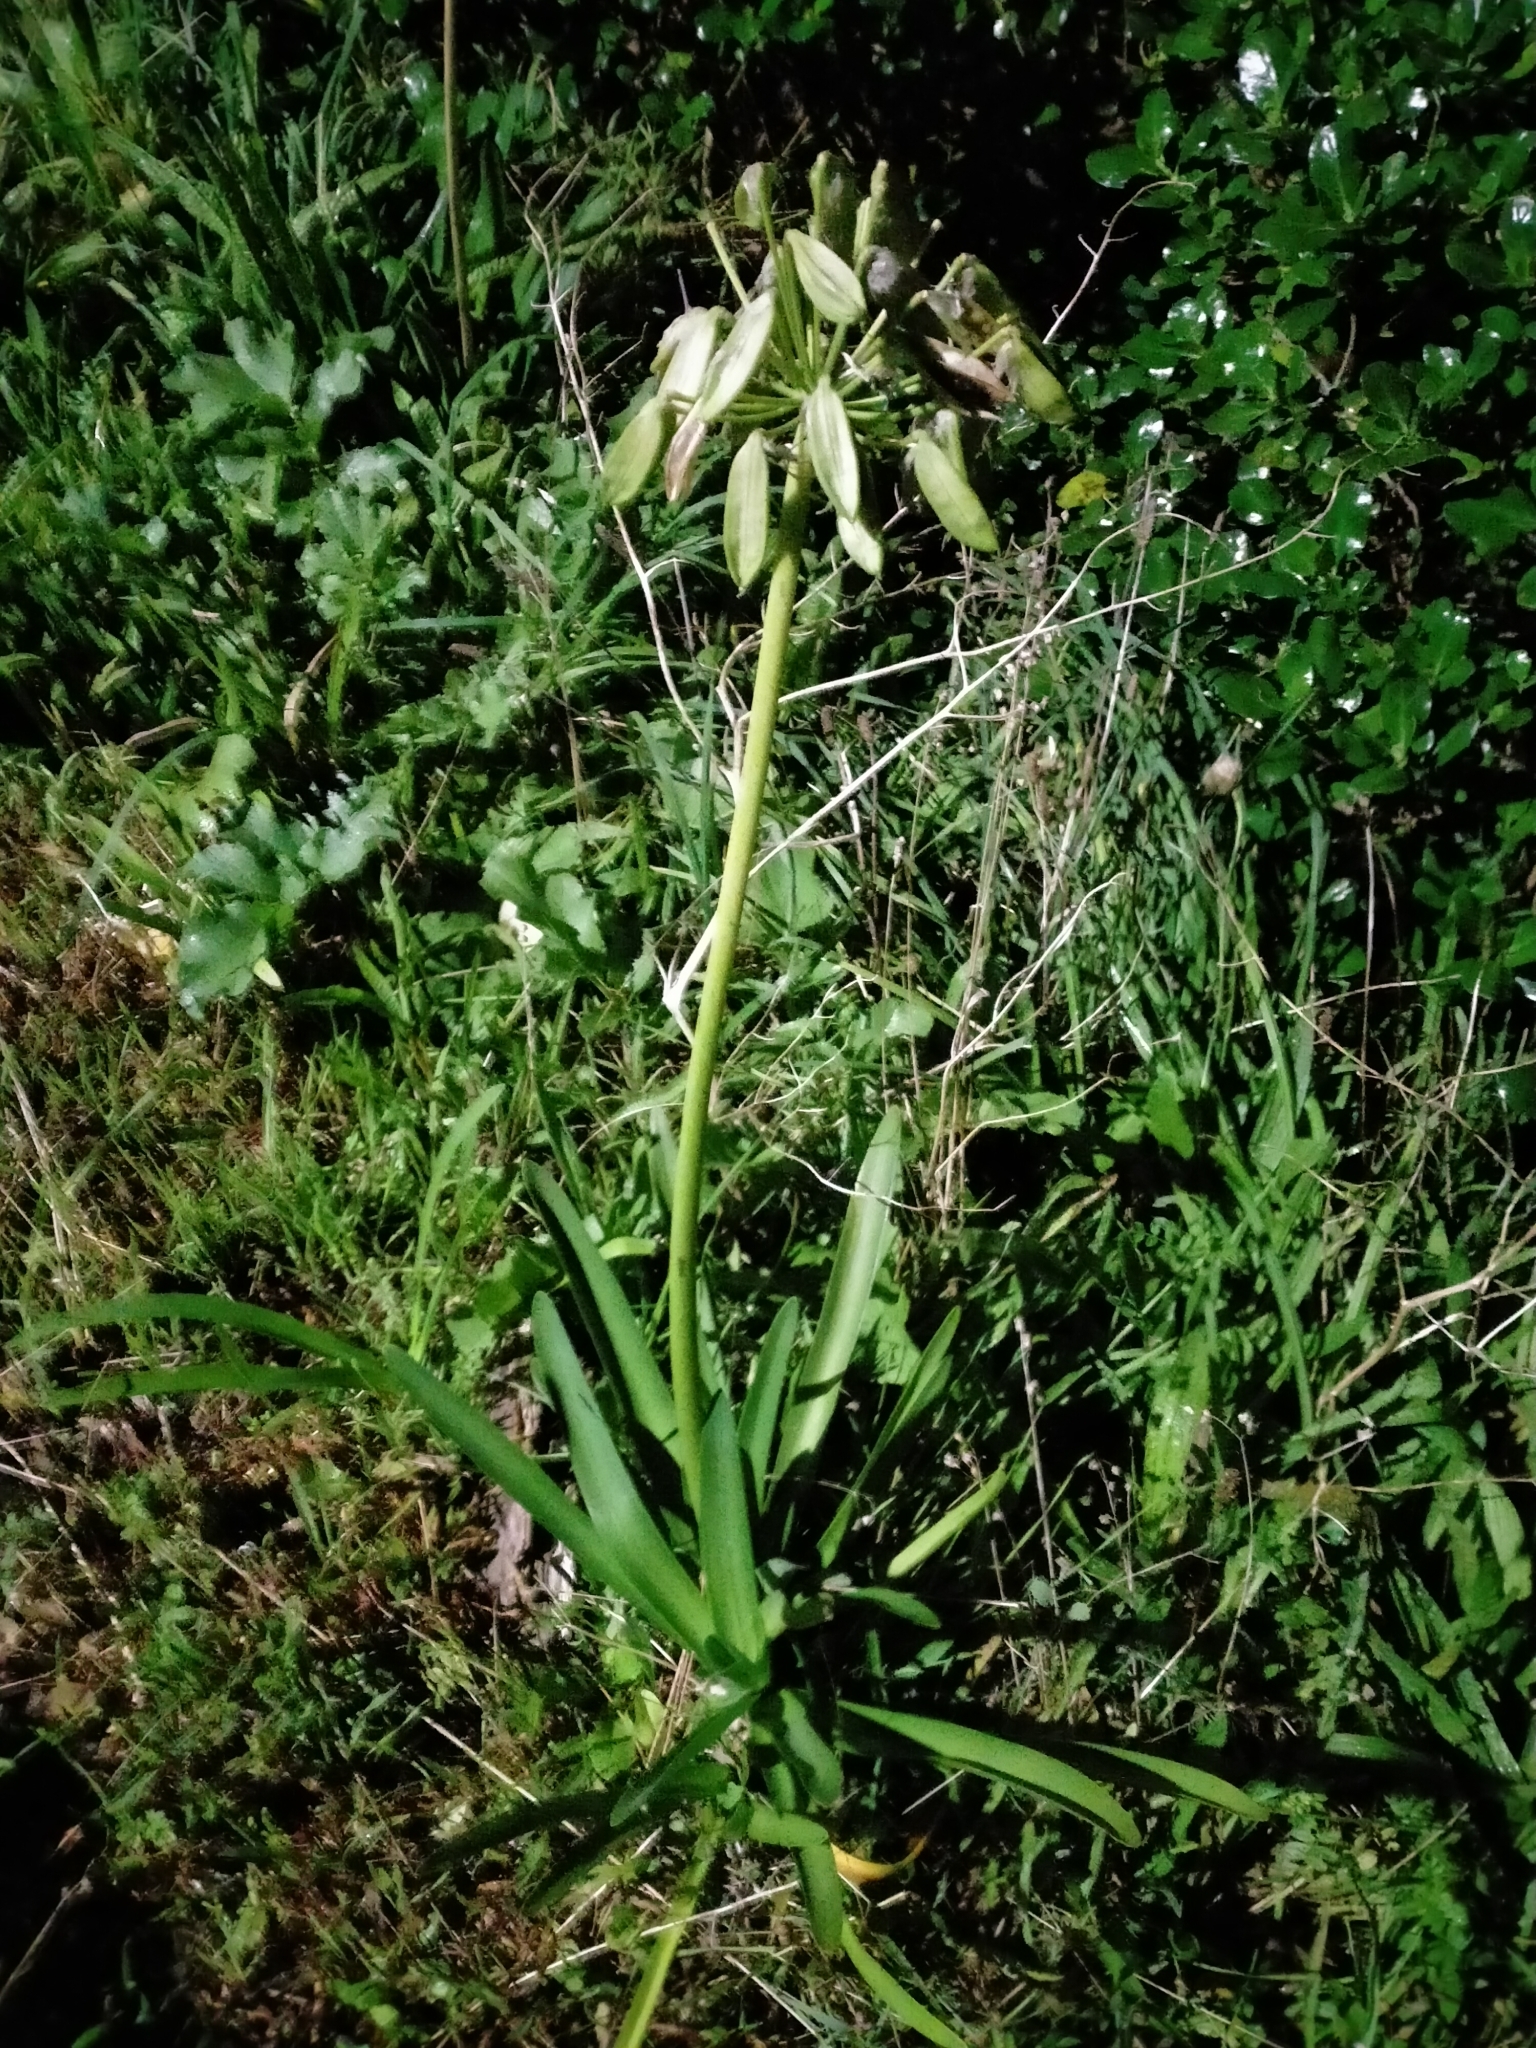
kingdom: Plantae
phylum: Tracheophyta
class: Liliopsida
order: Asparagales
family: Amaryllidaceae
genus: Agapanthus
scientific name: Agapanthus praecox
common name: African-lily
